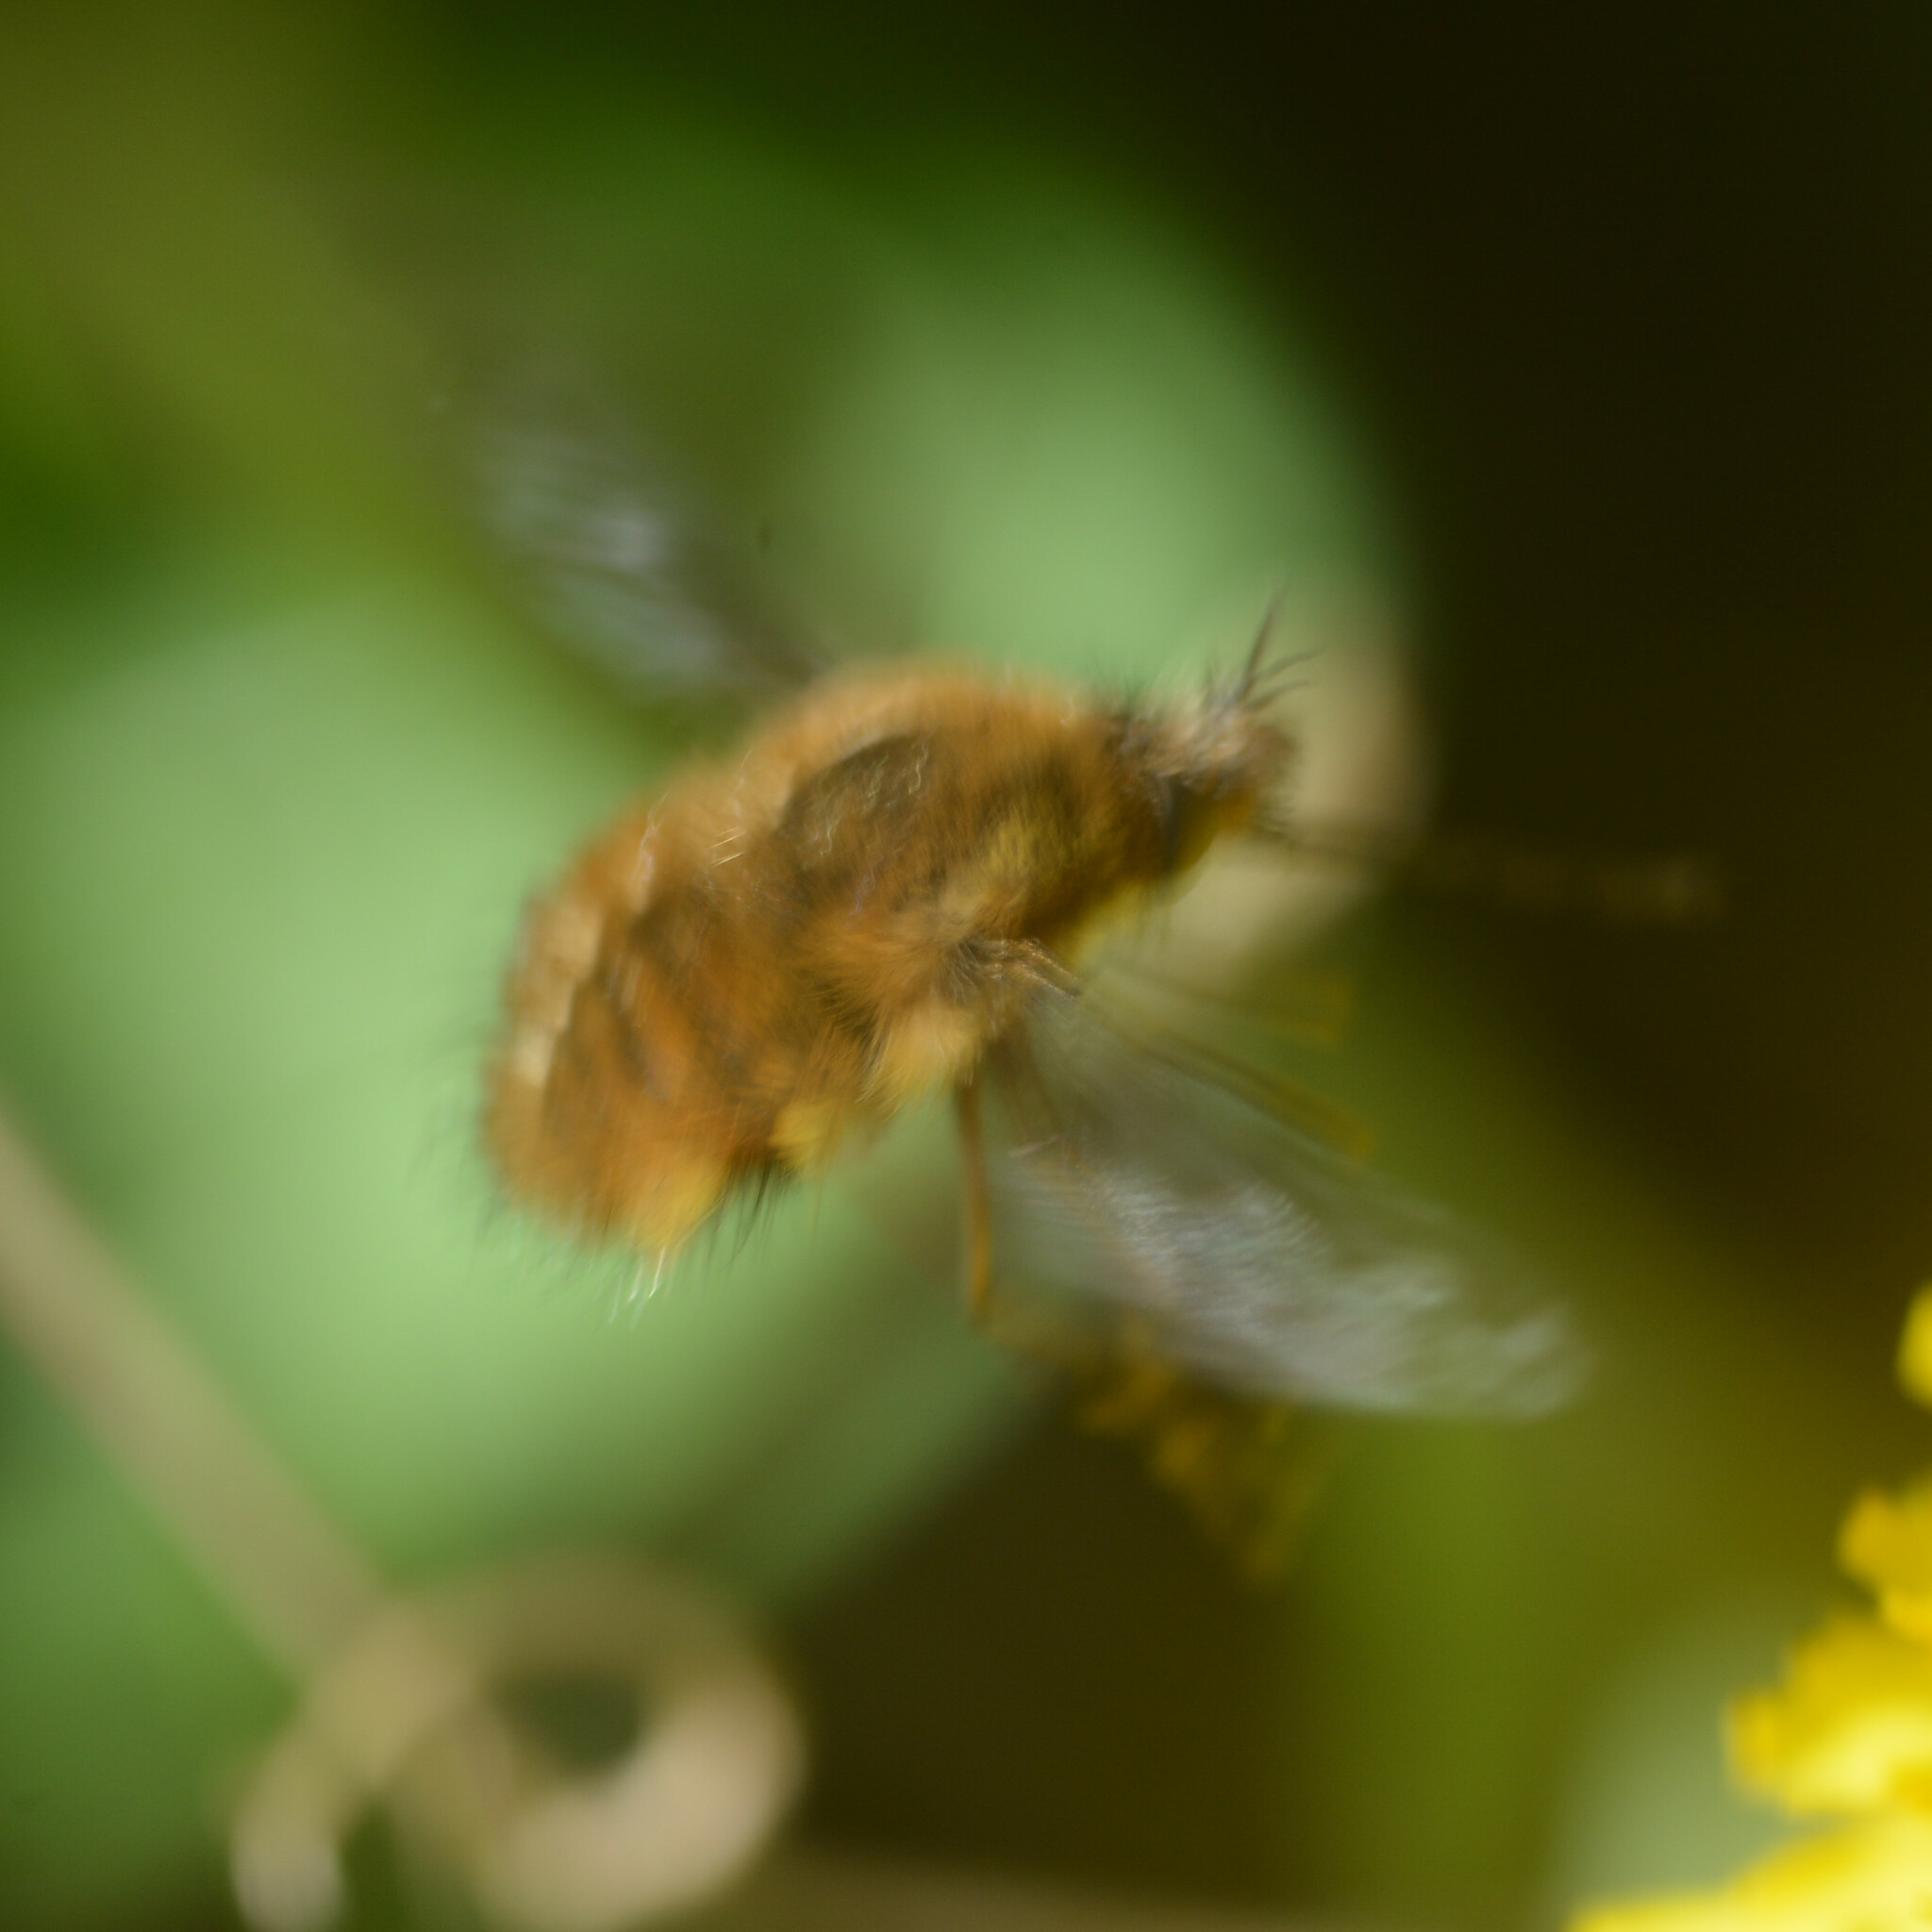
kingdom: Animalia
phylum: Arthropoda
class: Insecta
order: Diptera
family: Bombyliidae
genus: Bombylius
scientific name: Bombylius major
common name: Bee fly
